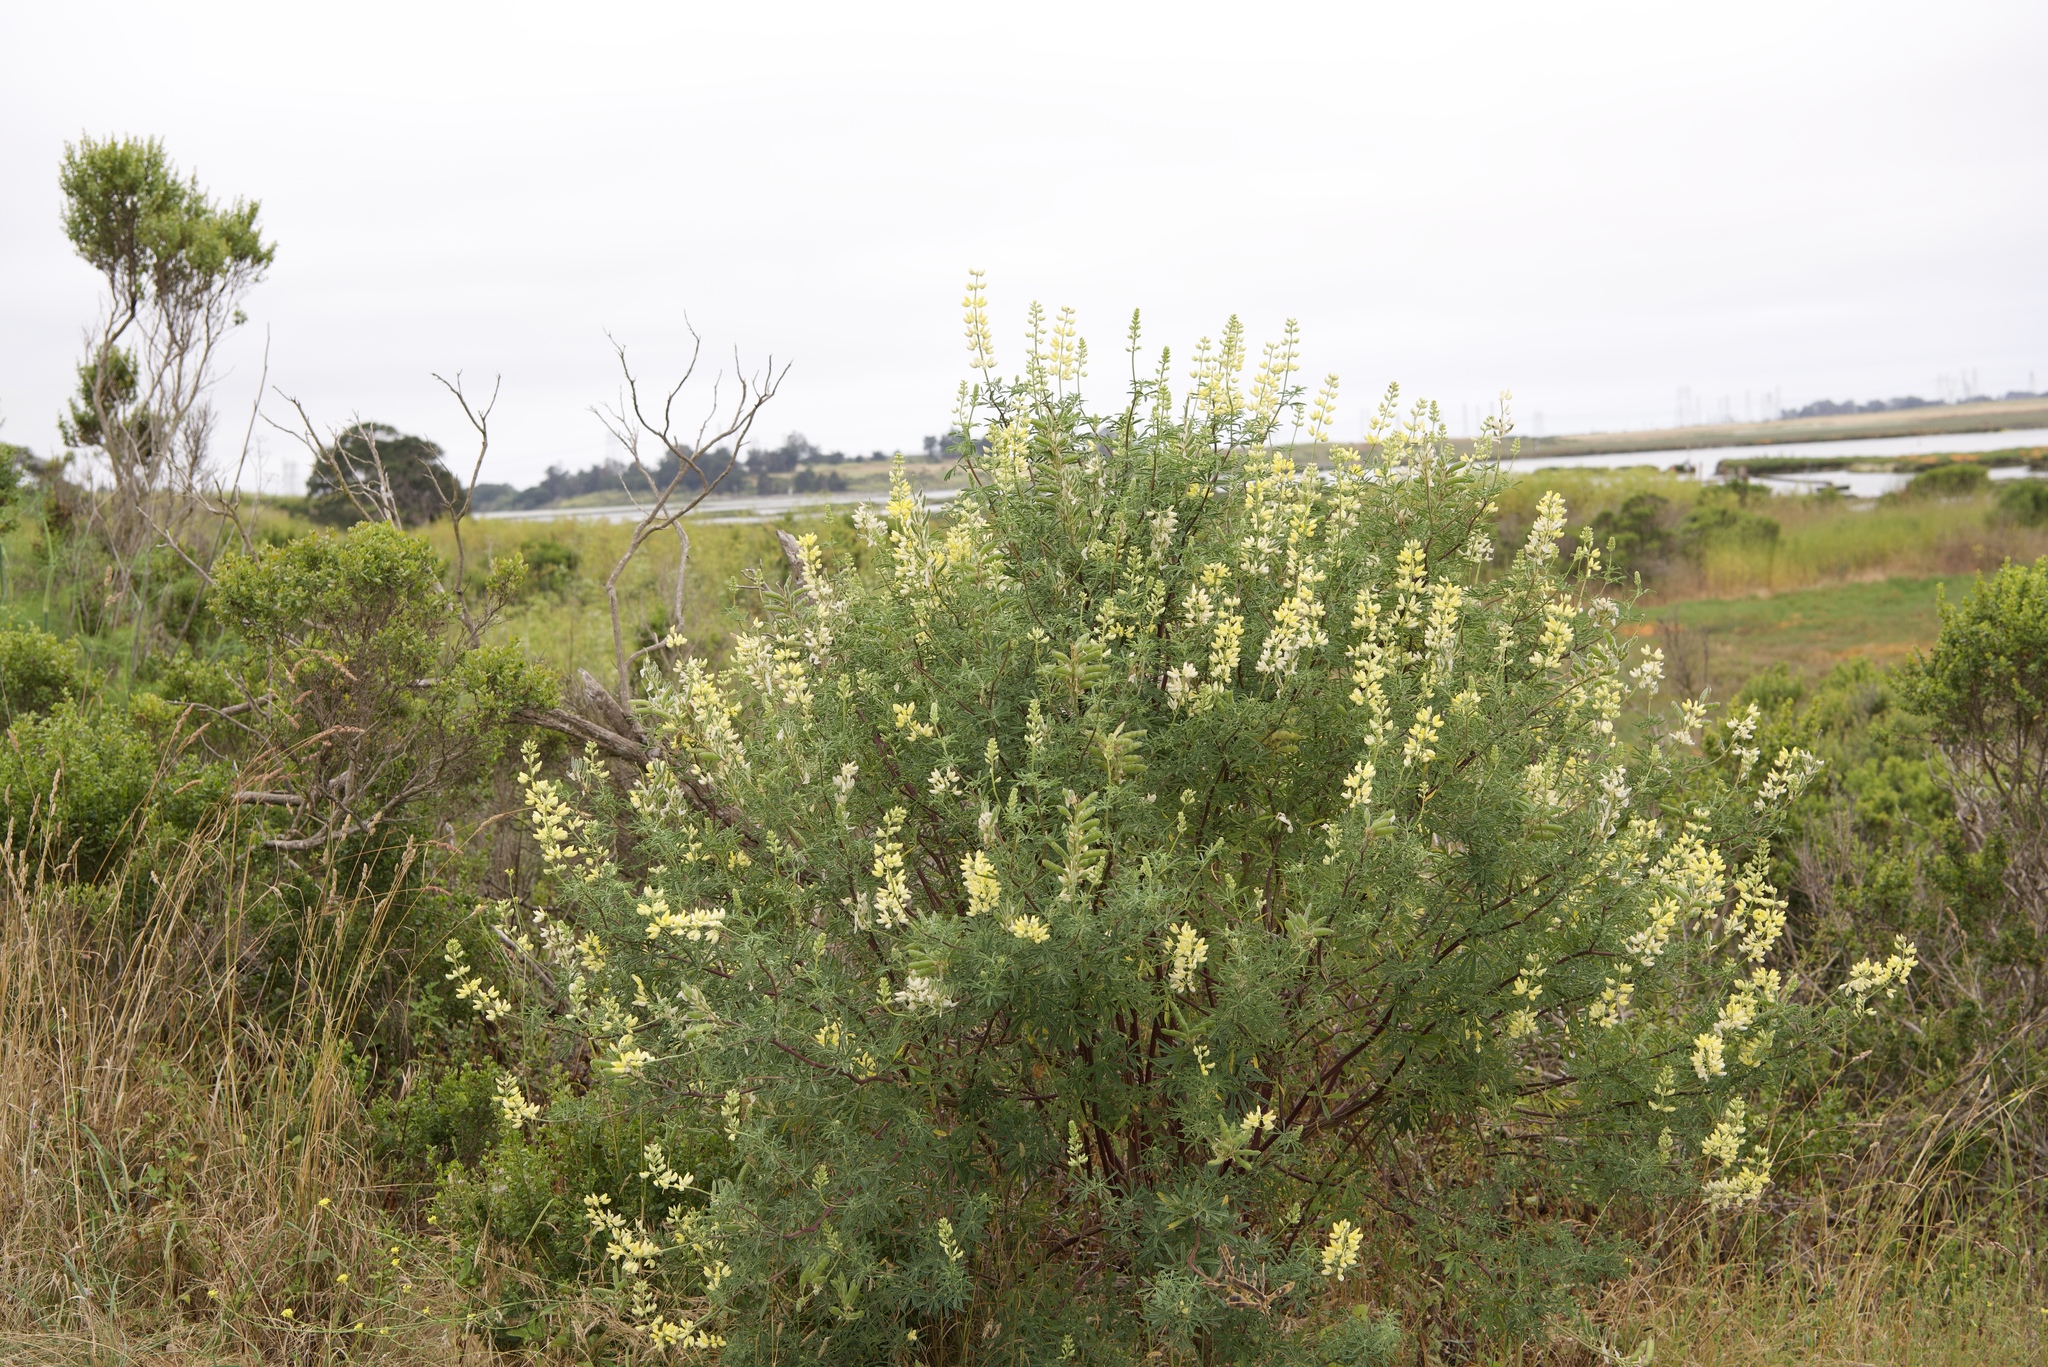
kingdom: Plantae
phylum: Tracheophyta
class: Magnoliopsida
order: Fabales
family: Fabaceae
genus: Lupinus
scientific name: Lupinus arboreus
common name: Yellow bush lupine
